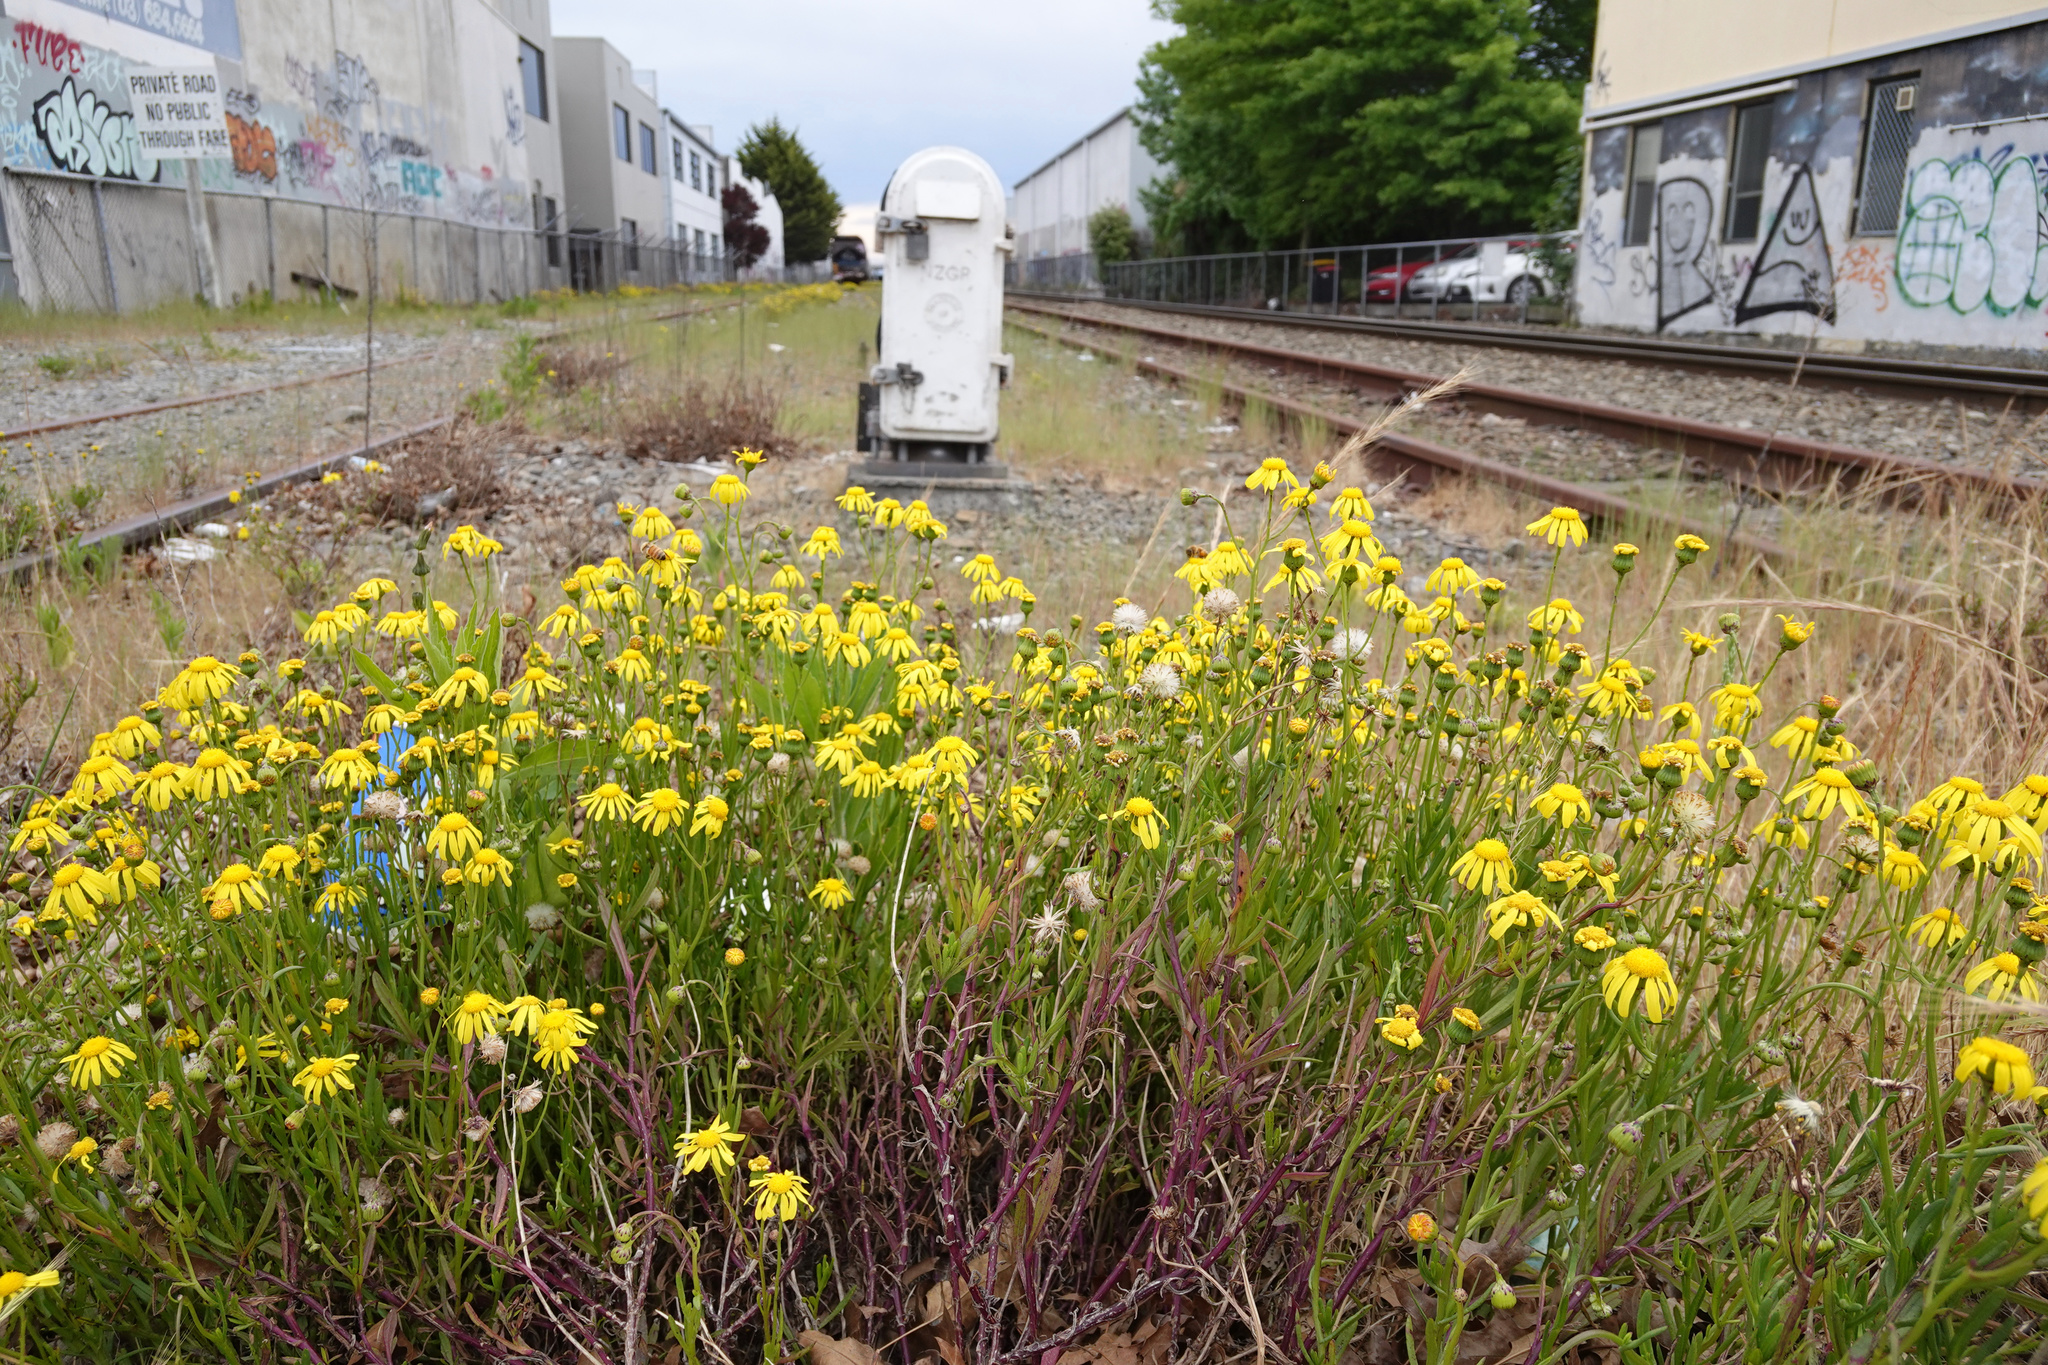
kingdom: Plantae
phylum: Tracheophyta
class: Magnoliopsida
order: Asterales
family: Asteraceae
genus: Senecio
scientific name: Senecio skirrhodon
